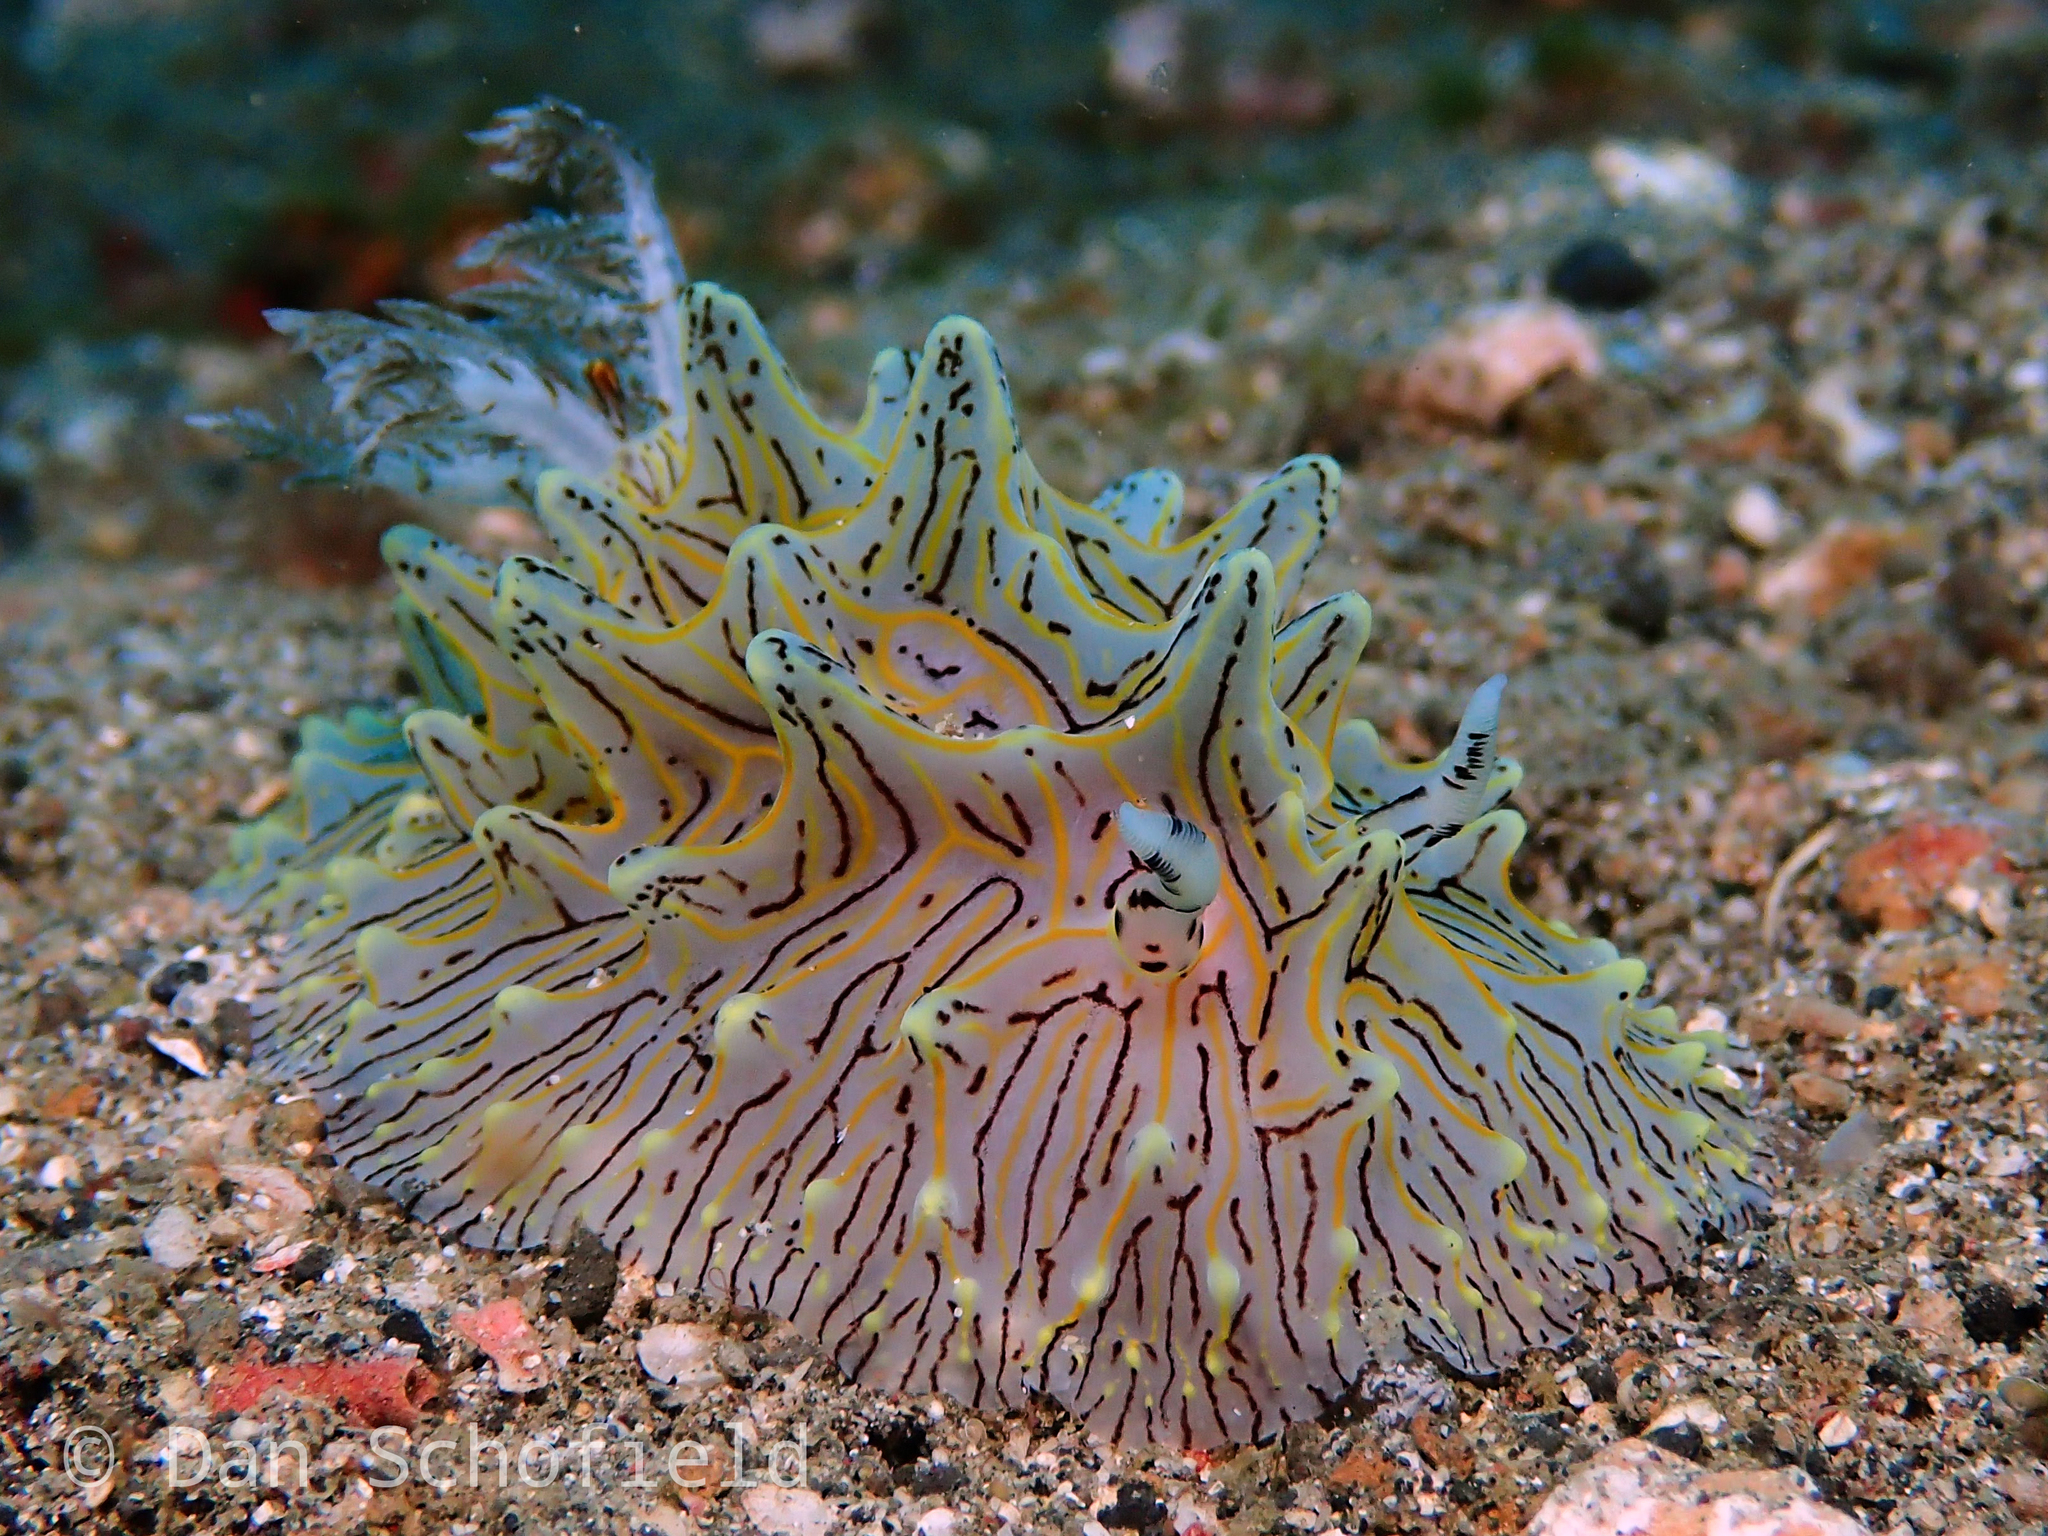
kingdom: Animalia
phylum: Mollusca
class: Gastropoda
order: Nudibranchia
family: Discodorididae
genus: Halgerda
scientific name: Halgerda willeyi
